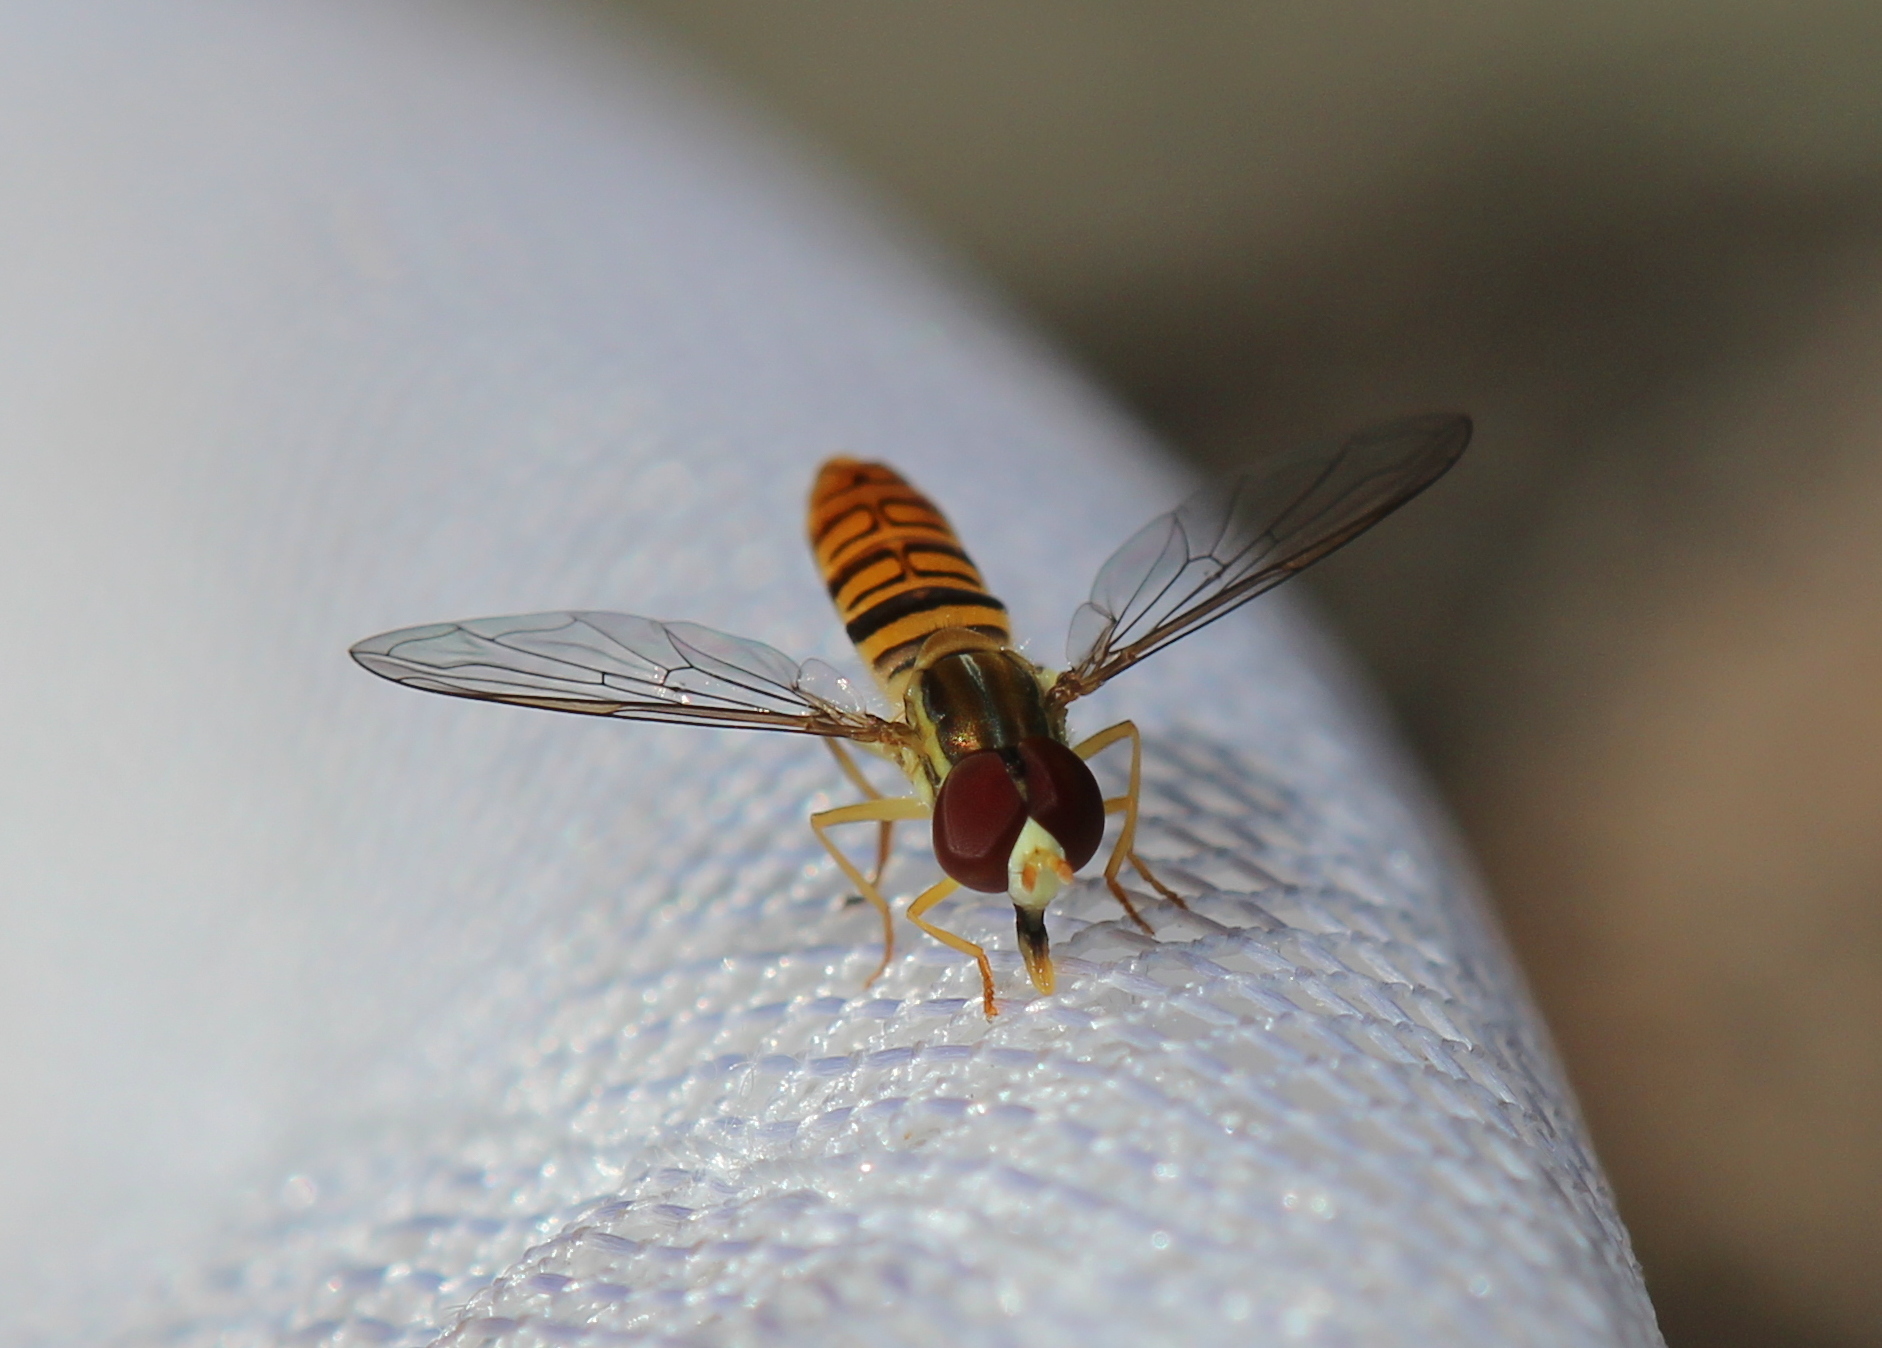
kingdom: Animalia
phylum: Arthropoda
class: Insecta
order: Diptera
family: Syrphidae
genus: Toxomerus
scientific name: Toxomerus politus
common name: Maize calligrapher
